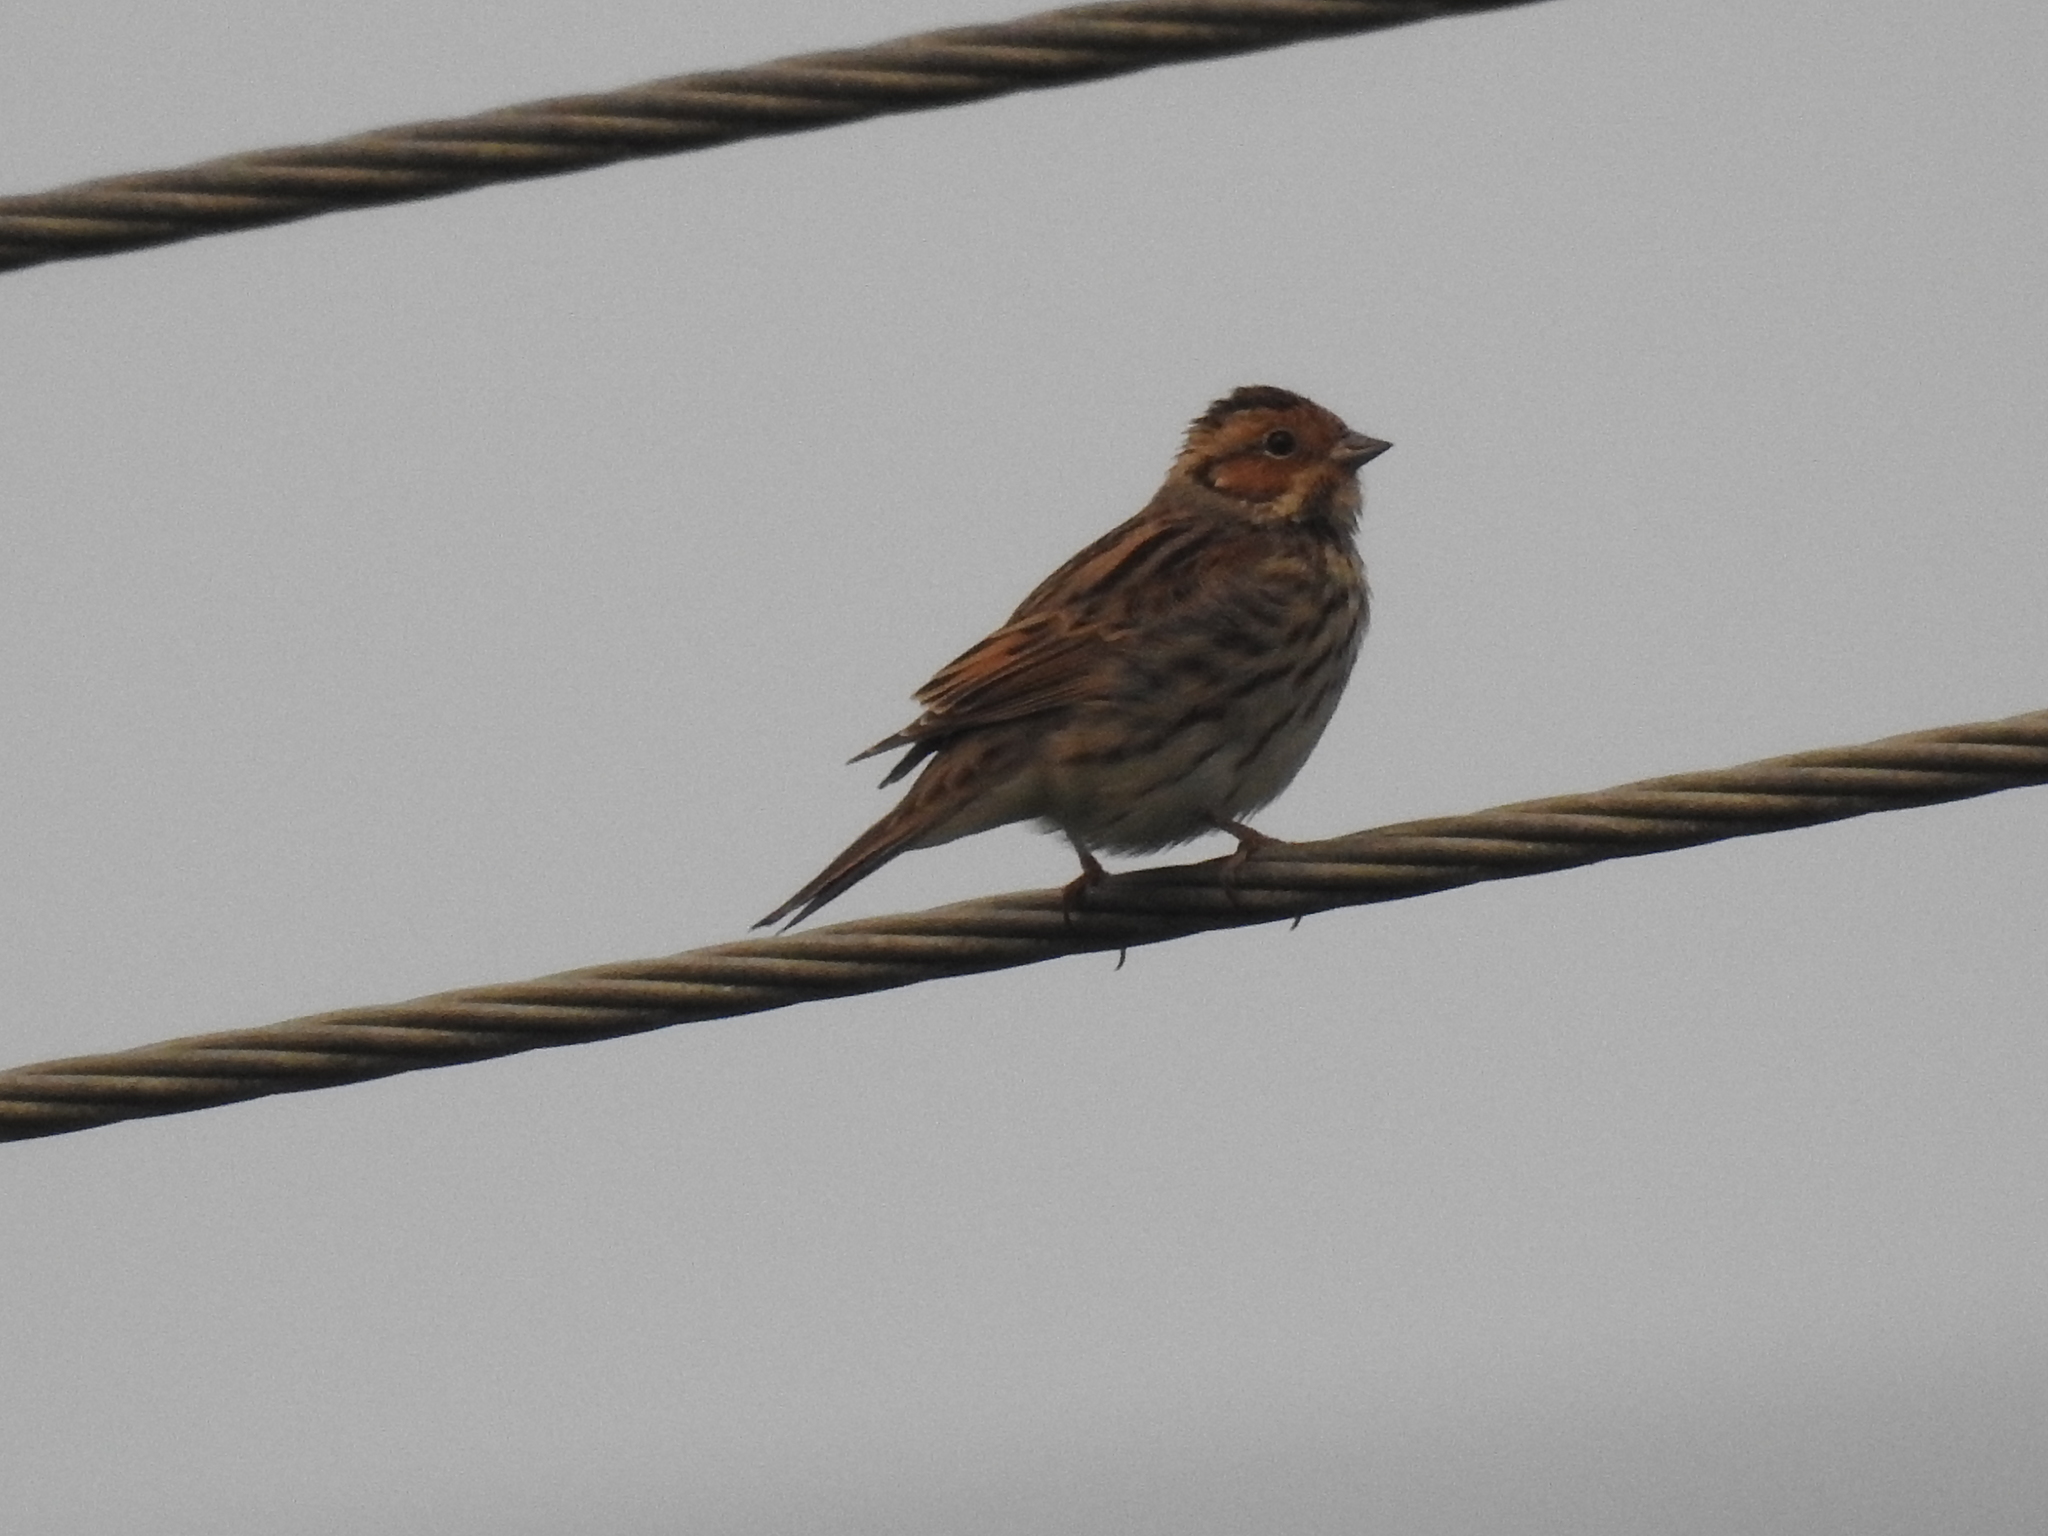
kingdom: Animalia
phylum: Chordata
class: Aves
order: Passeriformes
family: Emberizidae
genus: Emberiza
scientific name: Emberiza pusilla
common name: Little bunting
